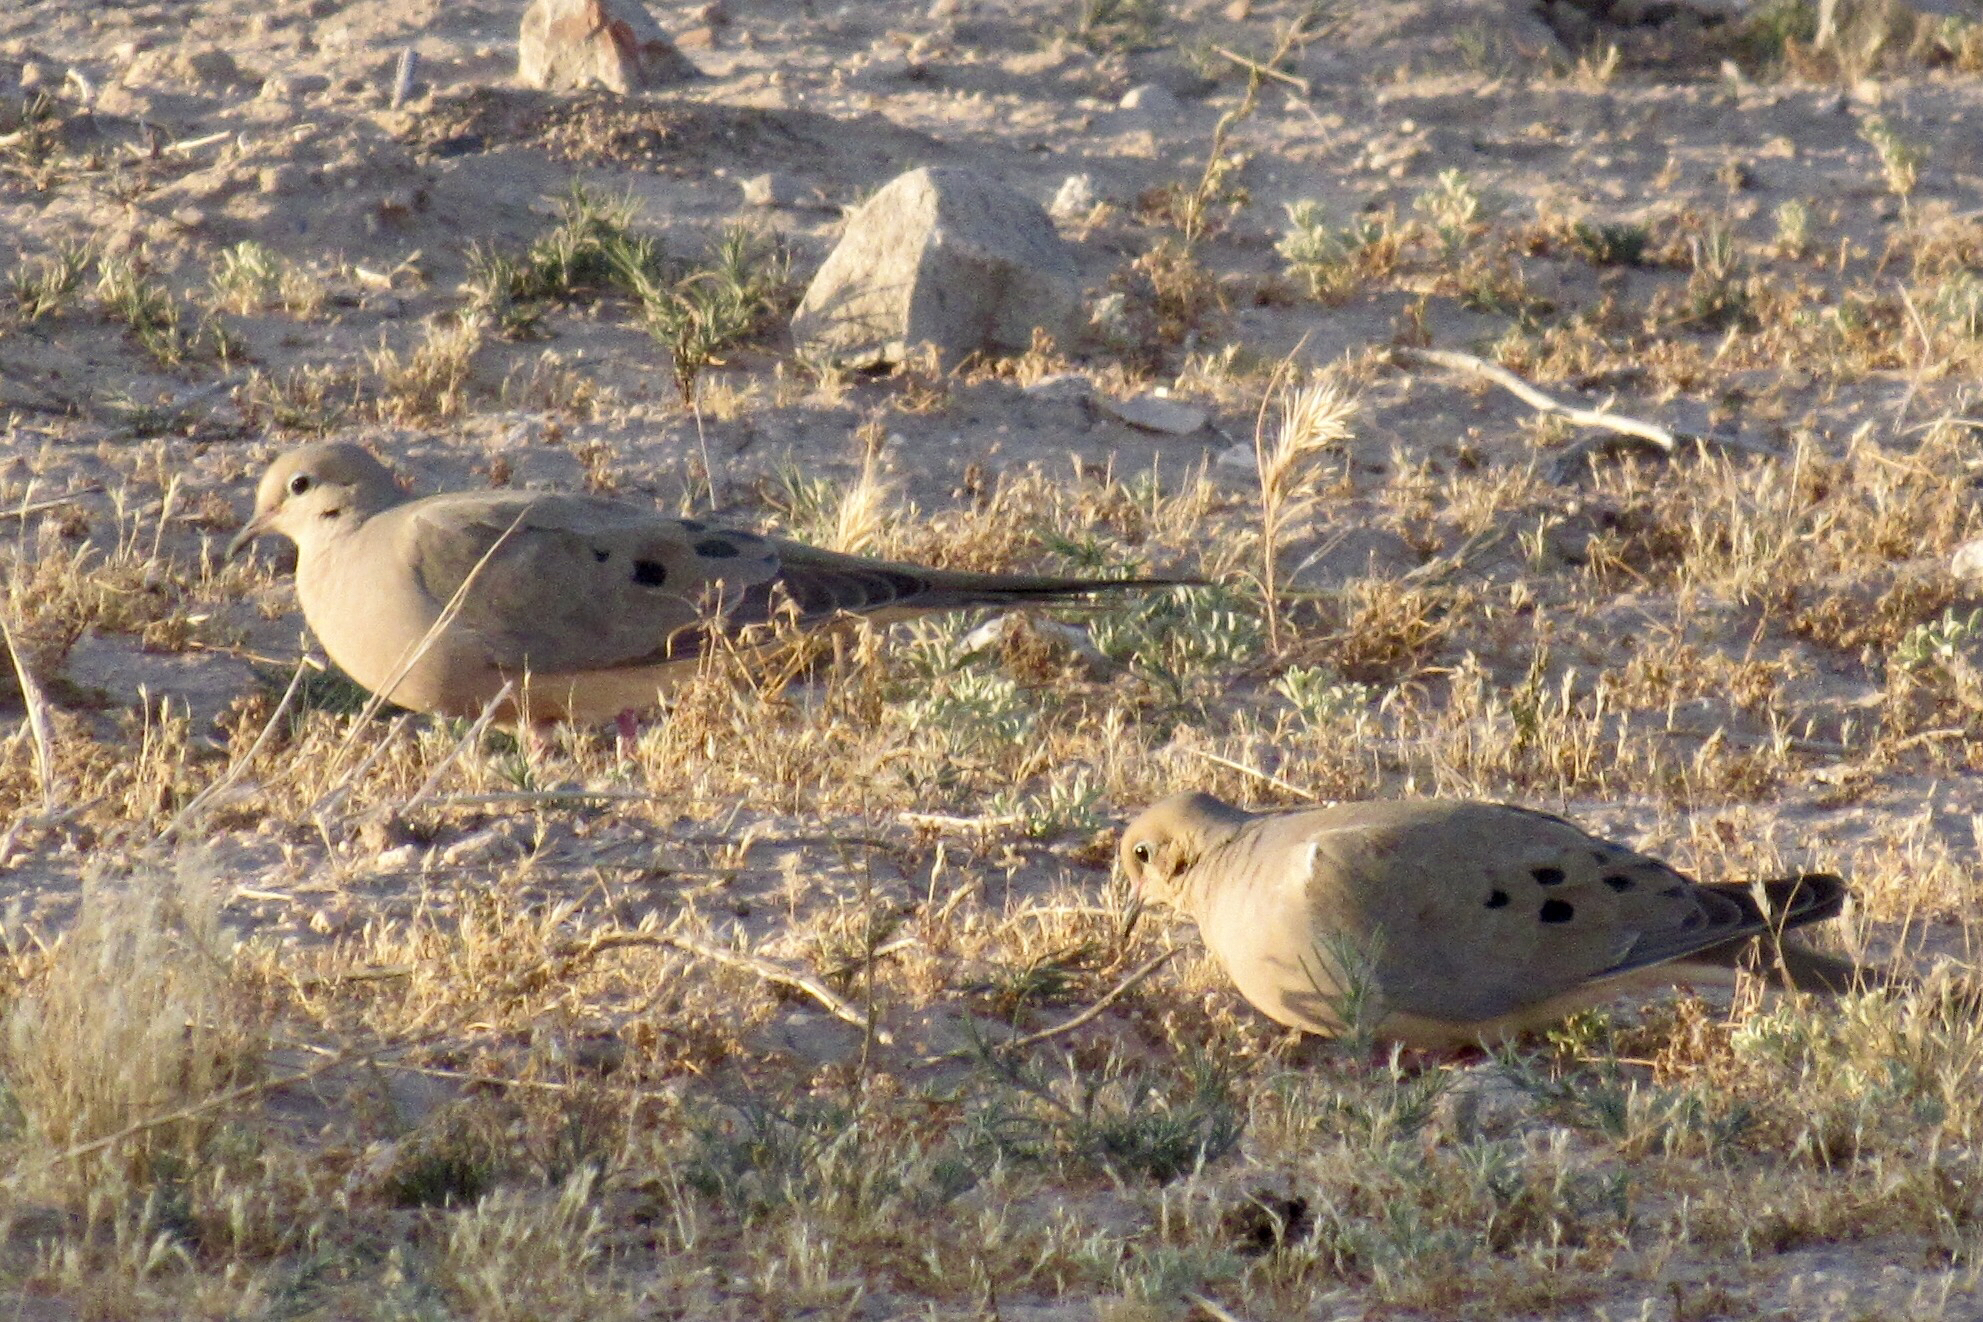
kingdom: Animalia
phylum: Chordata
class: Aves
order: Columbiformes
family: Columbidae
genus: Zenaida
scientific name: Zenaida macroura
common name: Mourning dove
